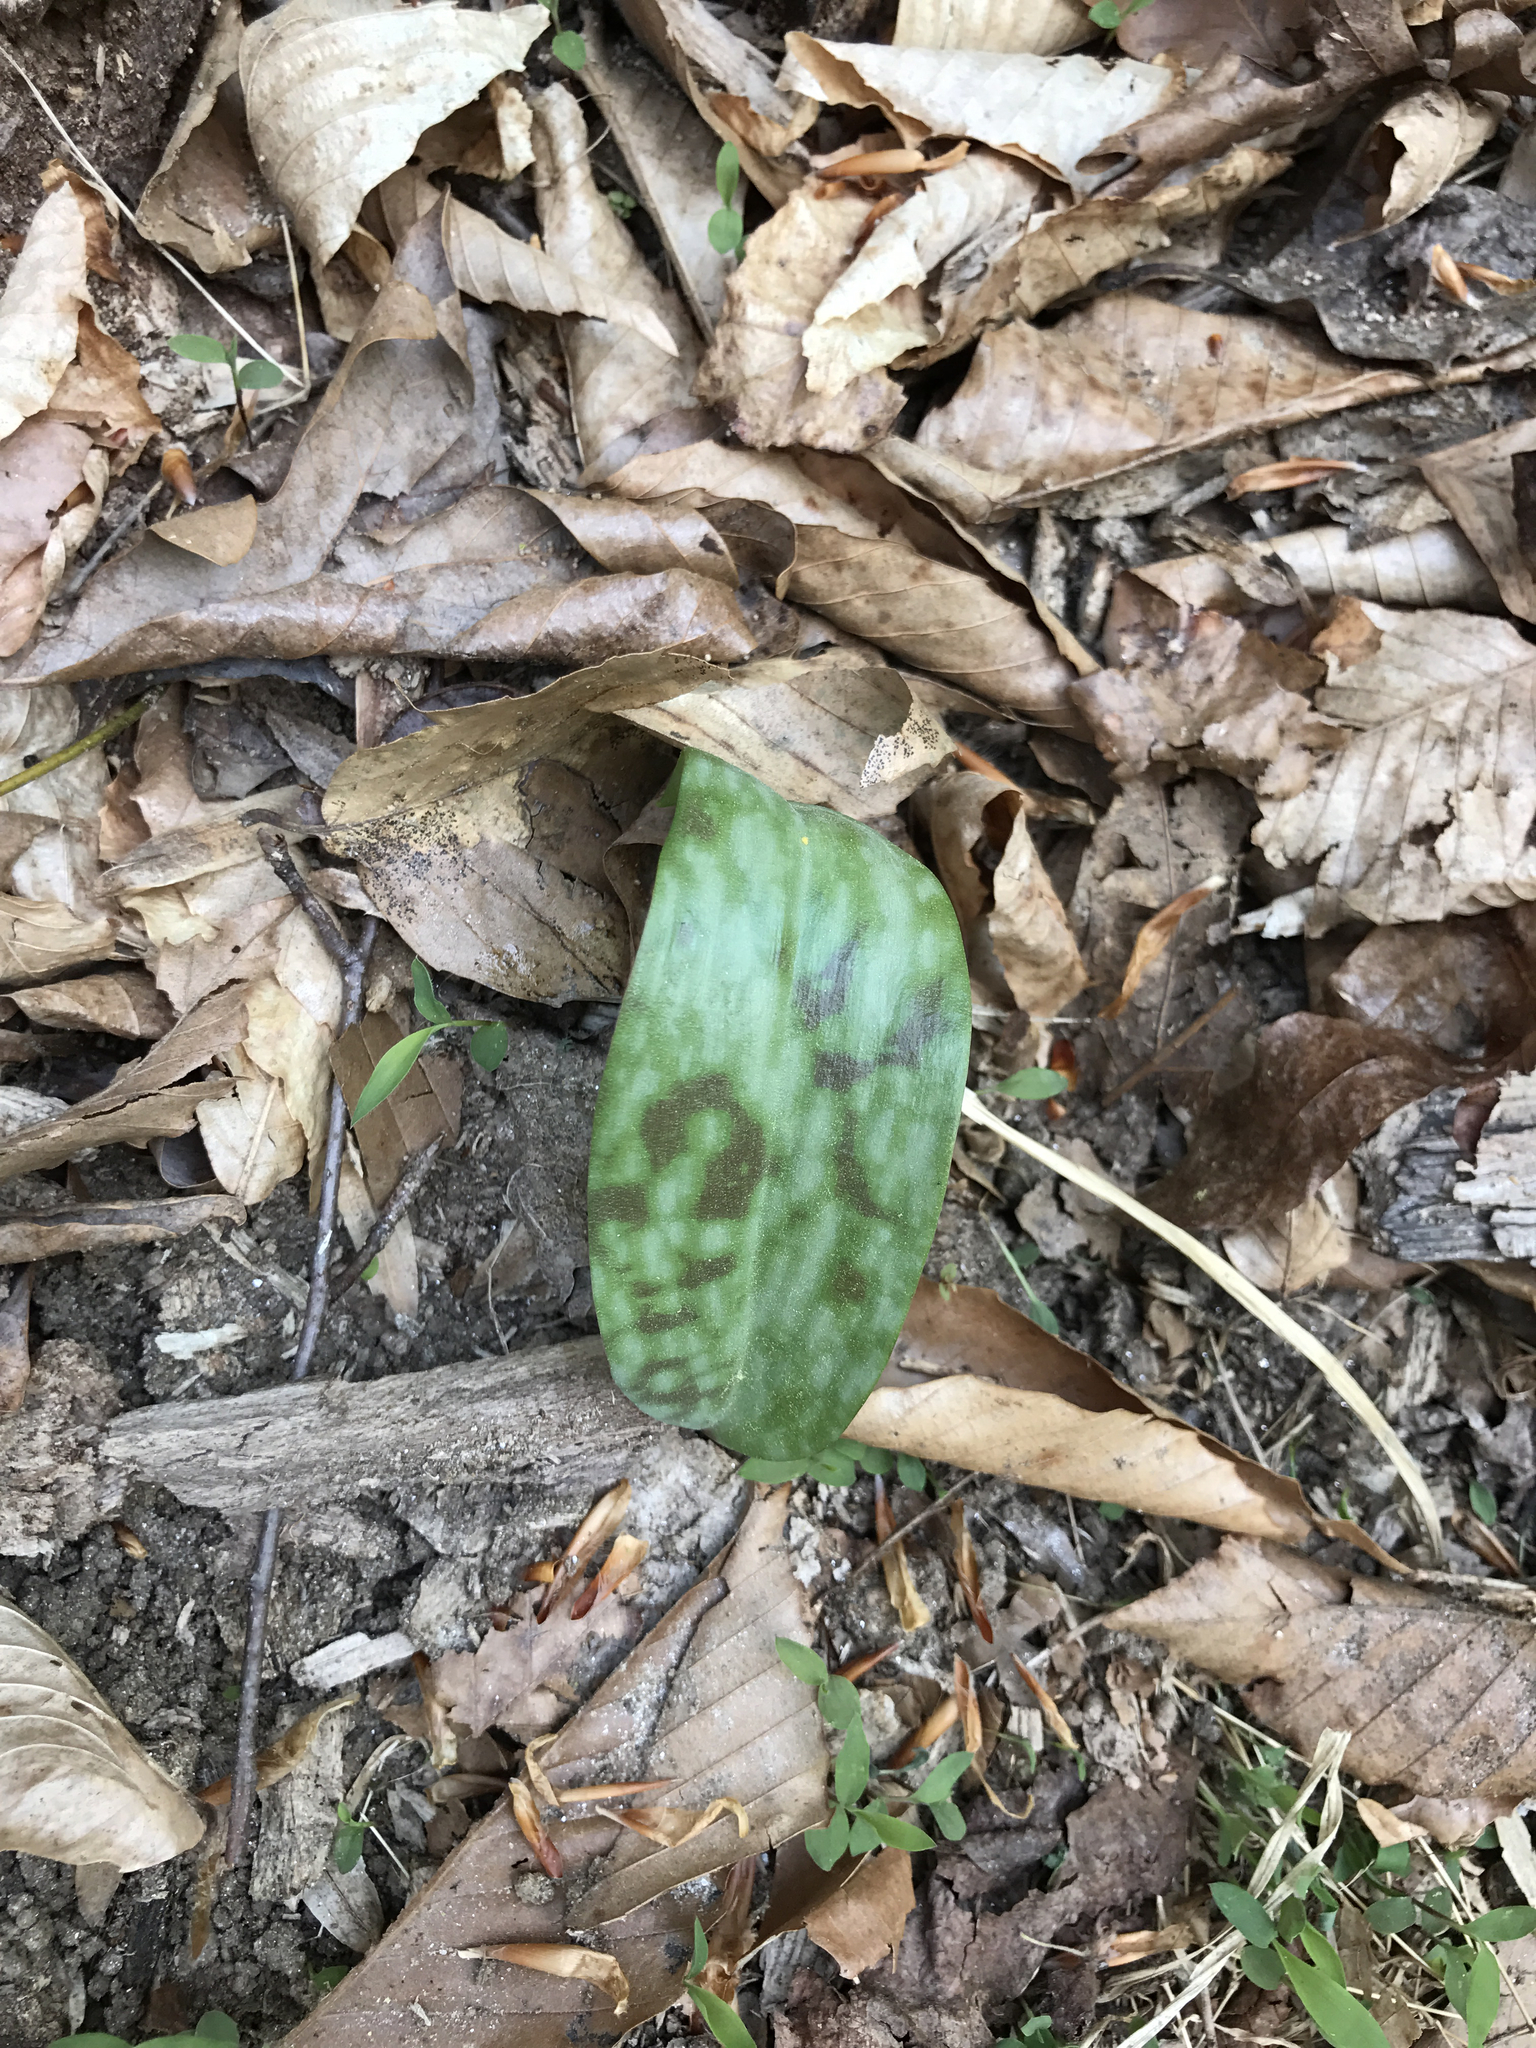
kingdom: Plantae
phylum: Tracheophyta
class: Liliopsida
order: Liliales
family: Liliaceae
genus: Erythronium
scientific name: Erythronium americanum
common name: Yellow adder's-tongue
